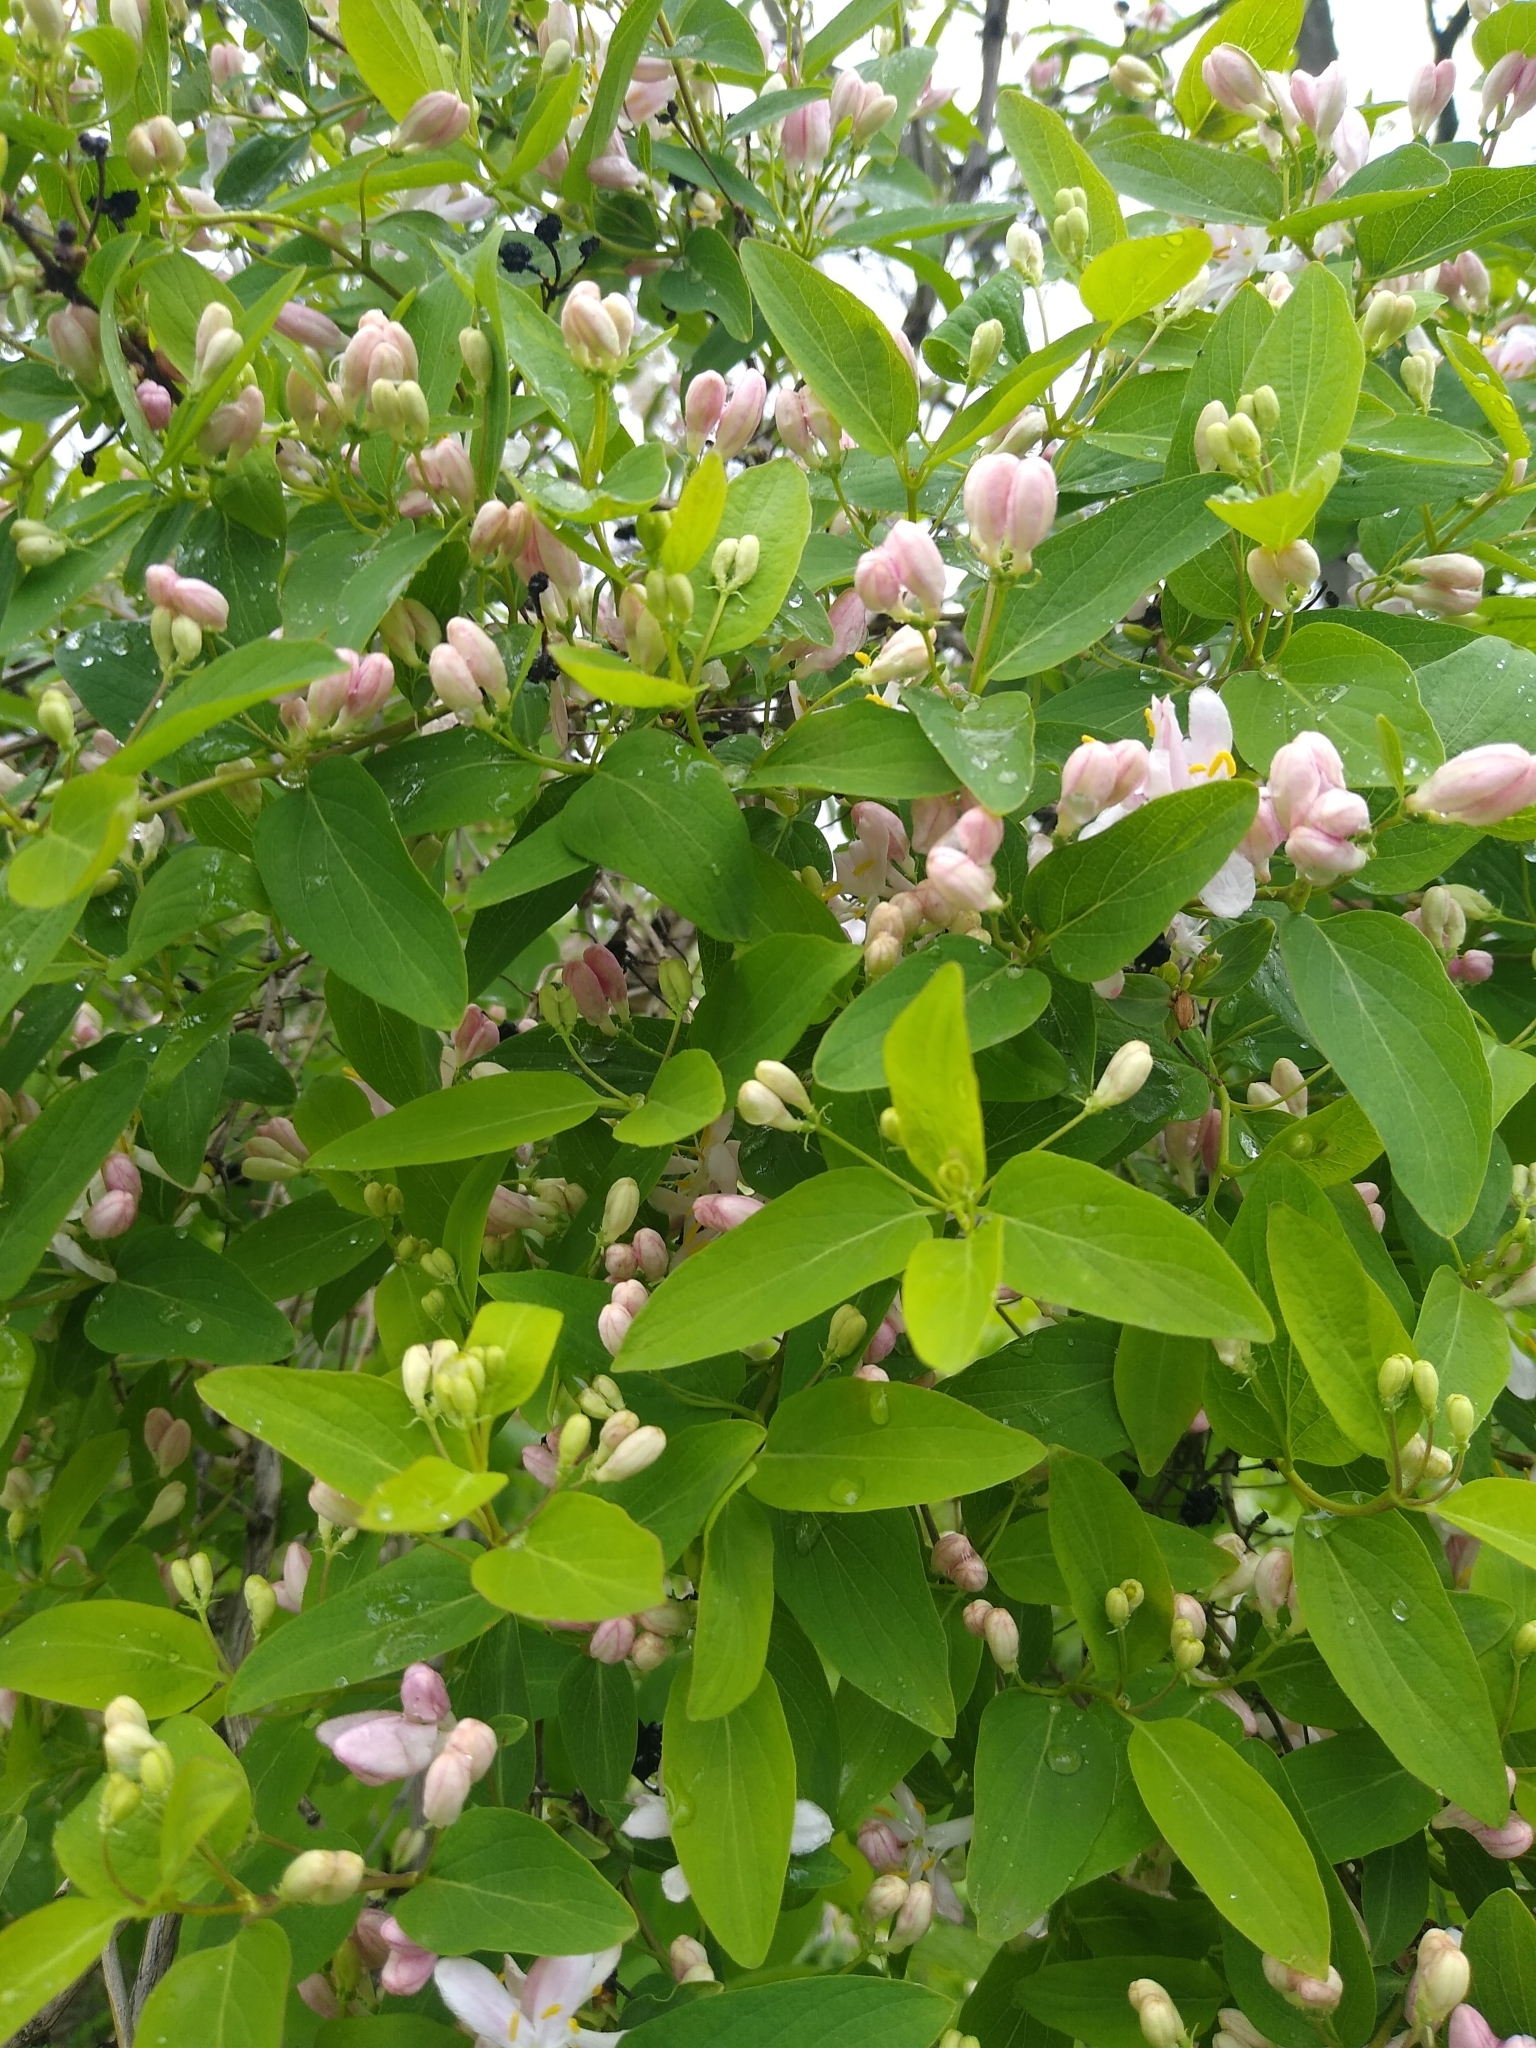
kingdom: Plantae
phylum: Tracheophyta
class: Magnoliopsida
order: Dipsacales
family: Caprifoliaceae
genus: Lonicera
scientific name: Lonicera tatarica
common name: Tatarian honeysuckle
